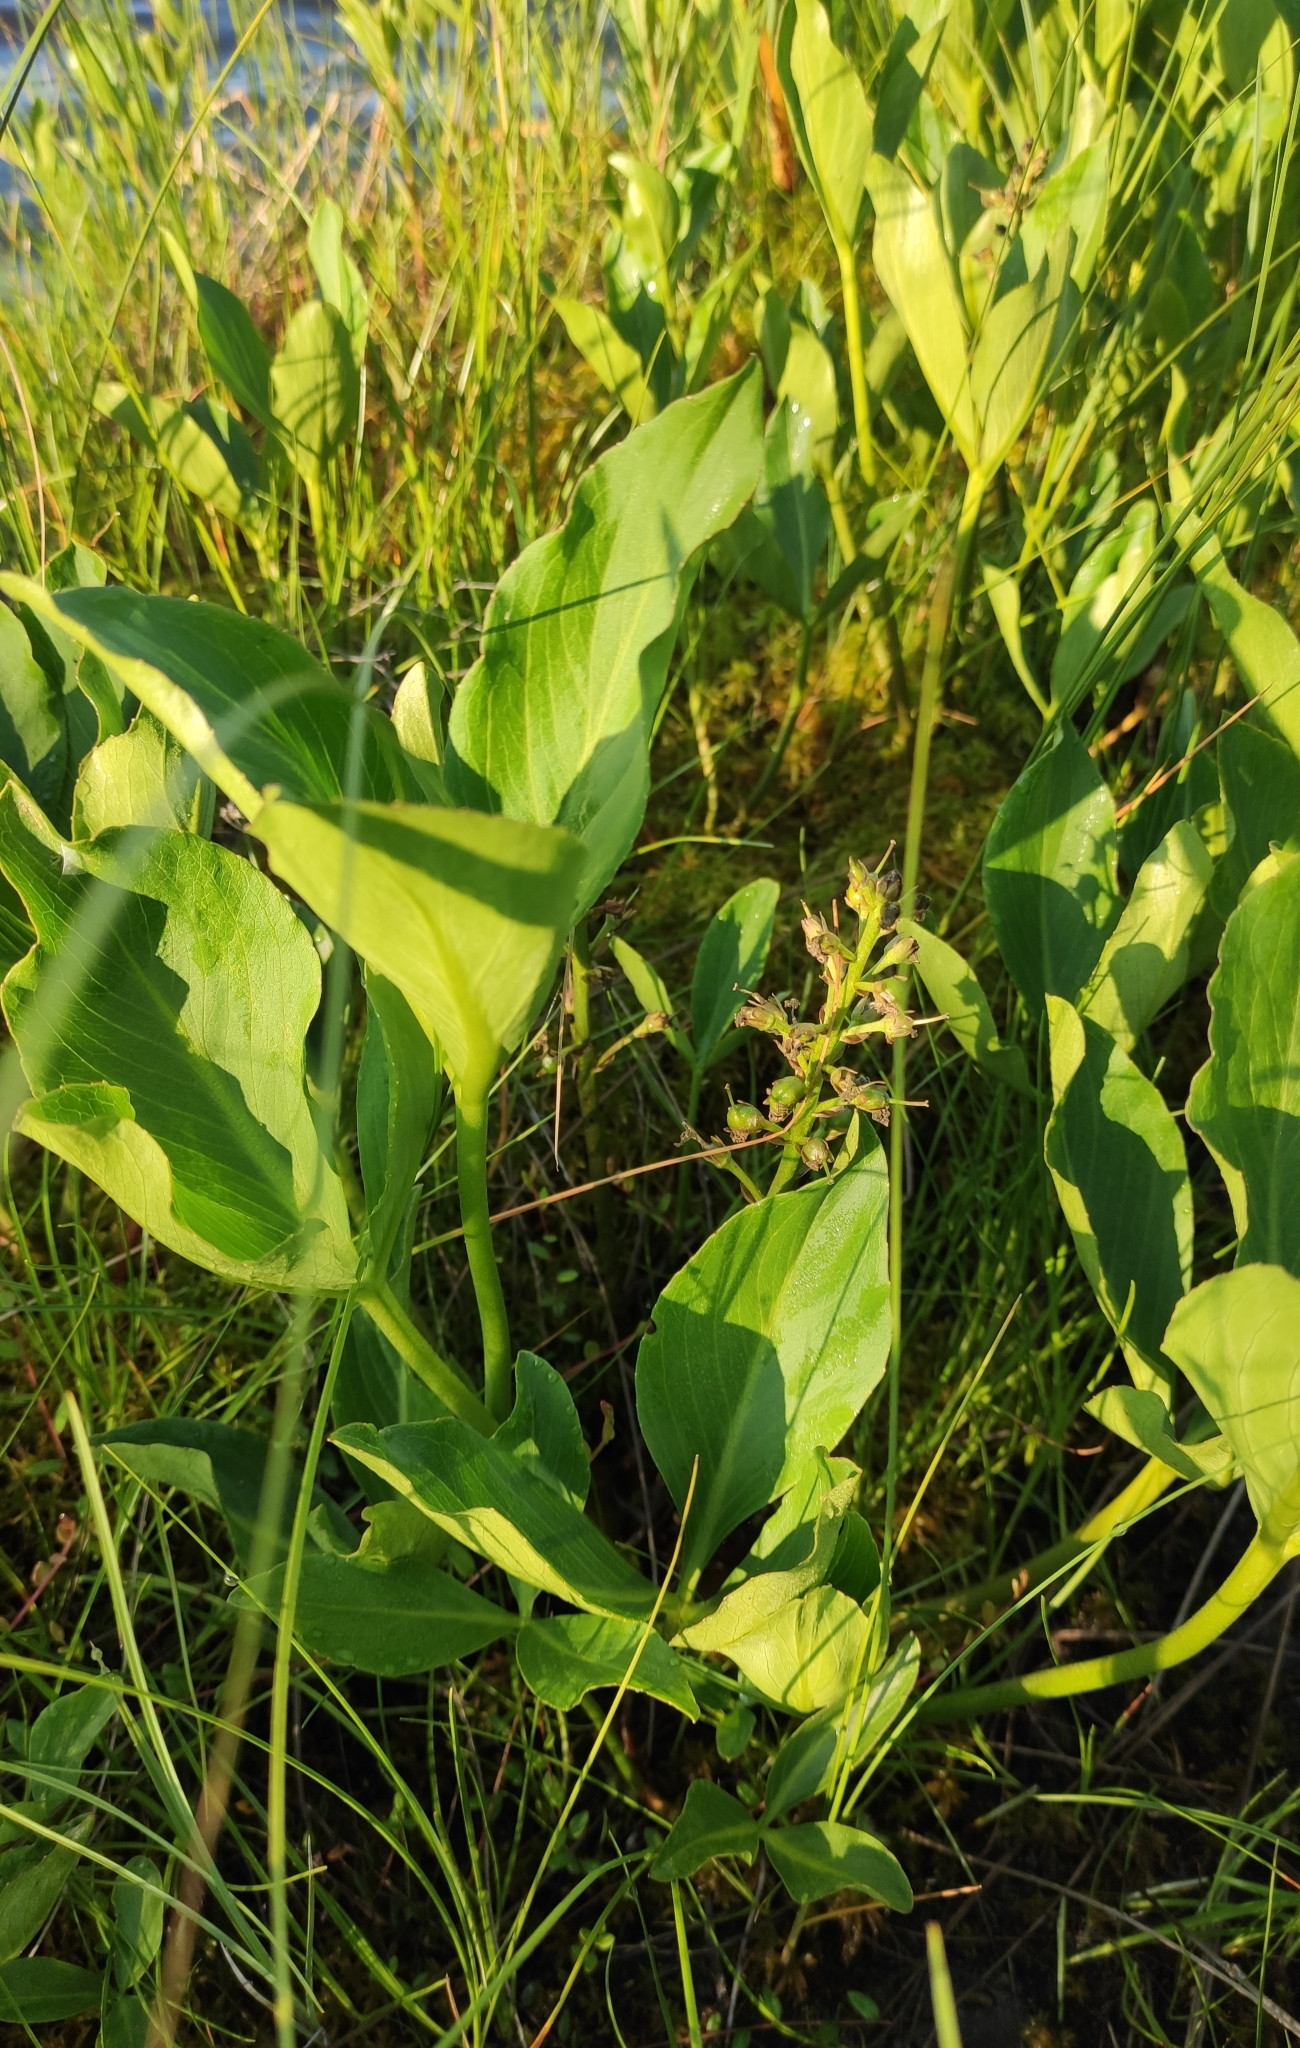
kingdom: Plantae
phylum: Tracheophyta
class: Magnoliopsida
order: Asterales
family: Menyanthaceae
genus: Menyanthes
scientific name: Menyanthes trifoliata
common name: Bogbean
